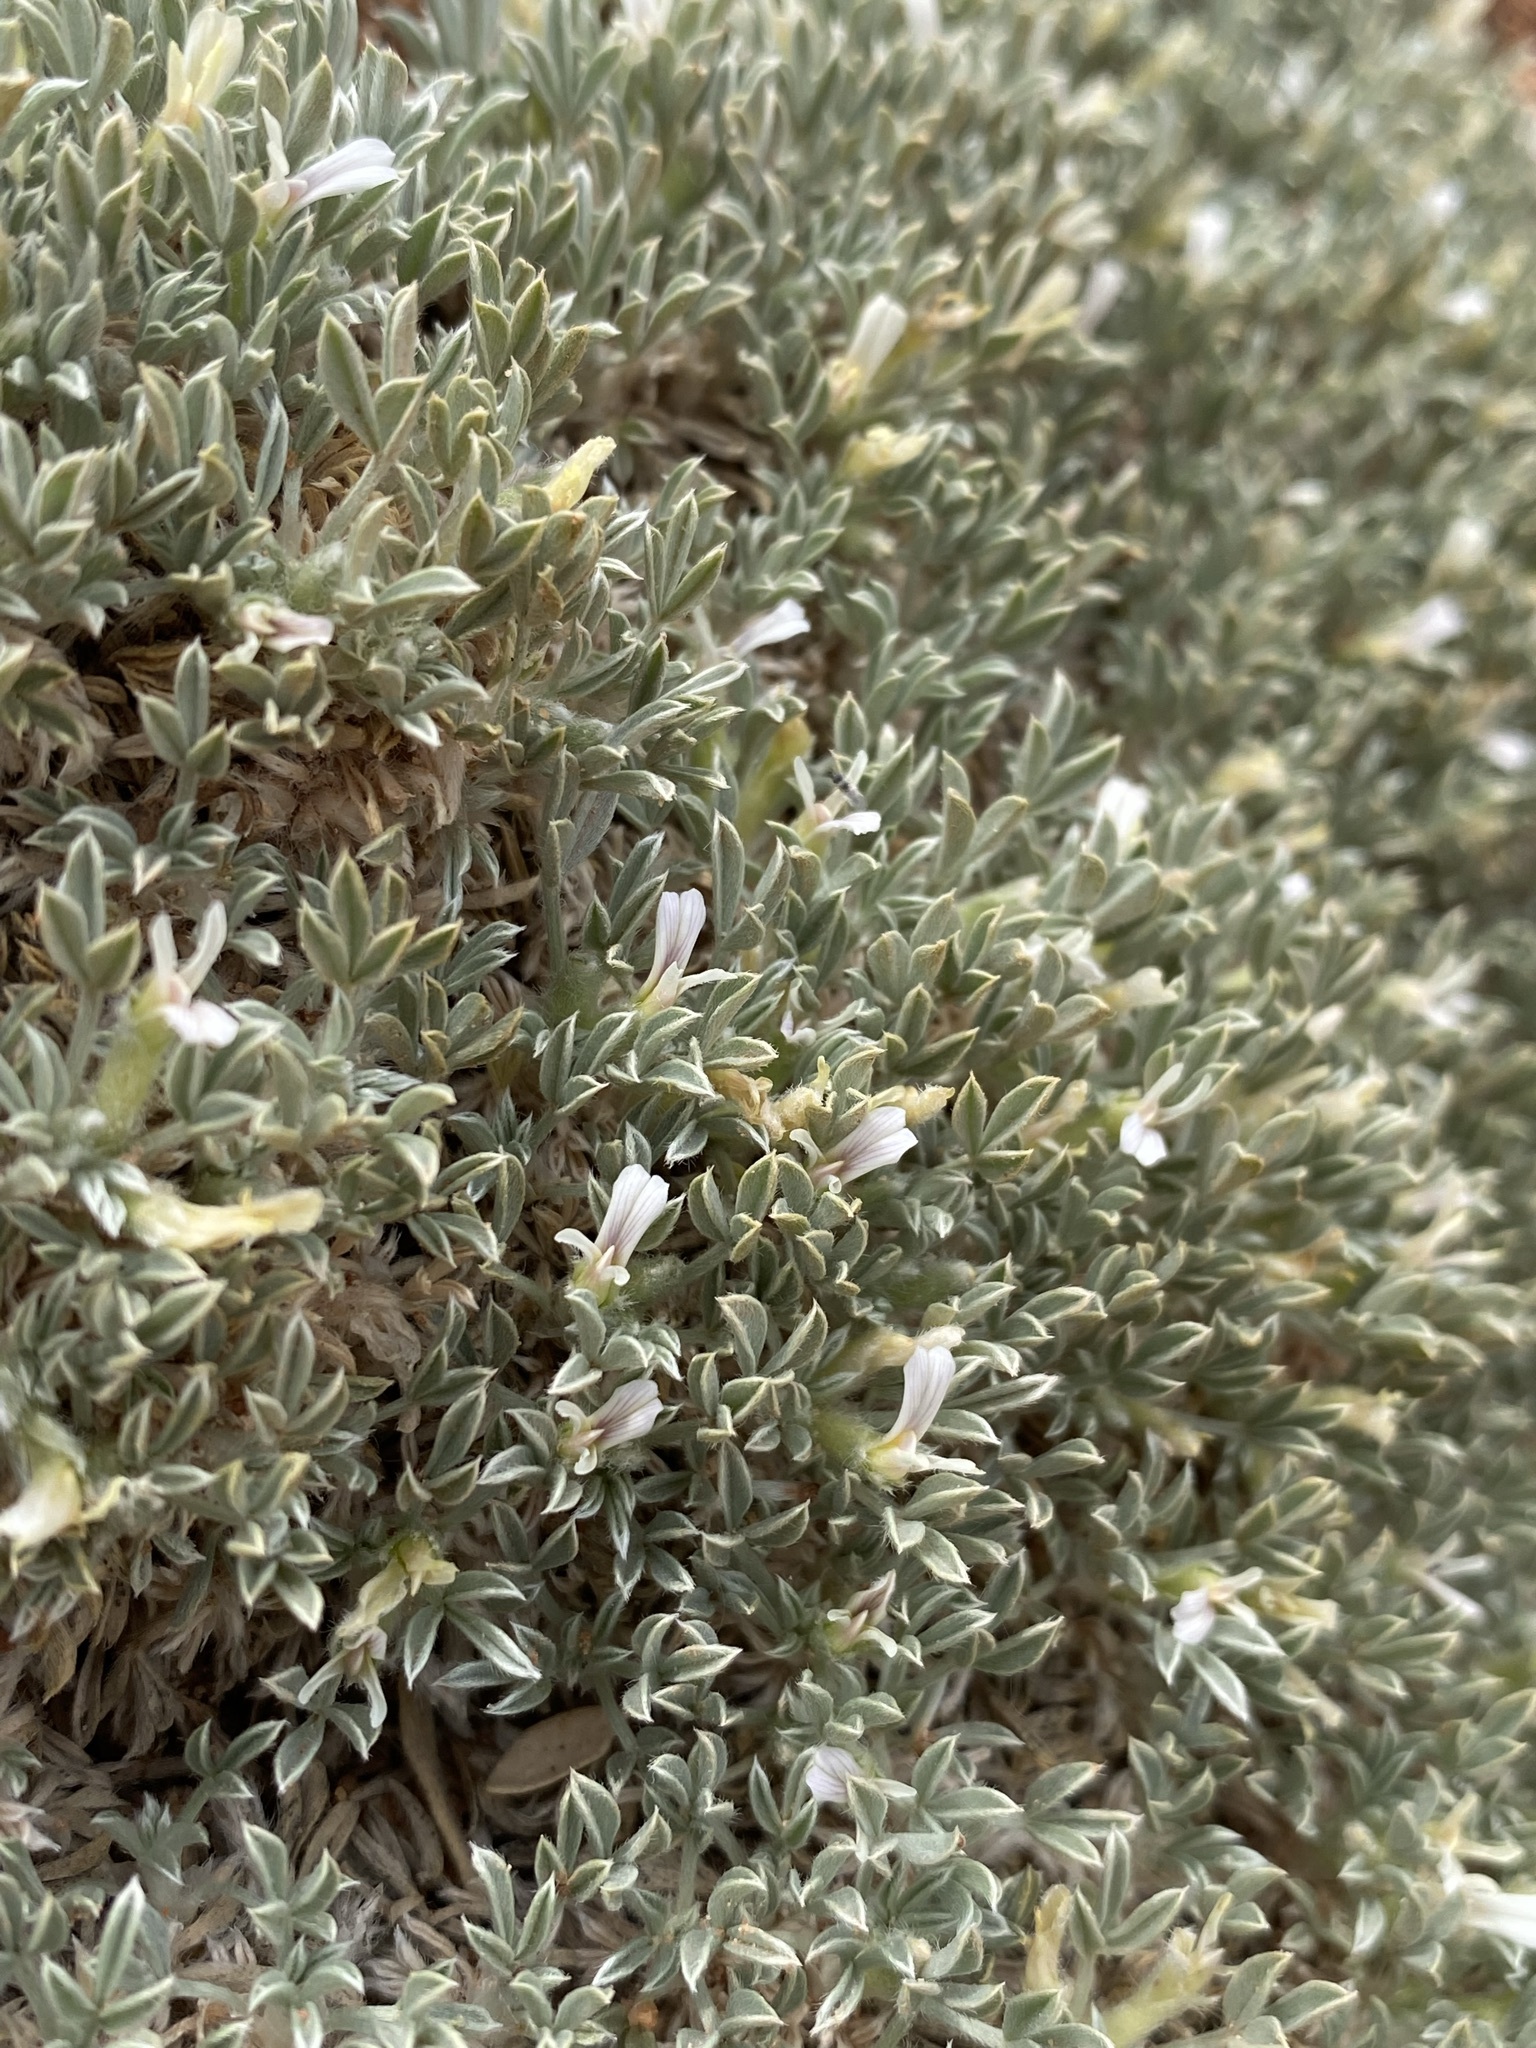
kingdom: Plantae
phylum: Tracheophyta
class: Magnoliopsida
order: Fabales
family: Fabaceae
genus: Astragalus
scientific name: Astragalus hyalinus
